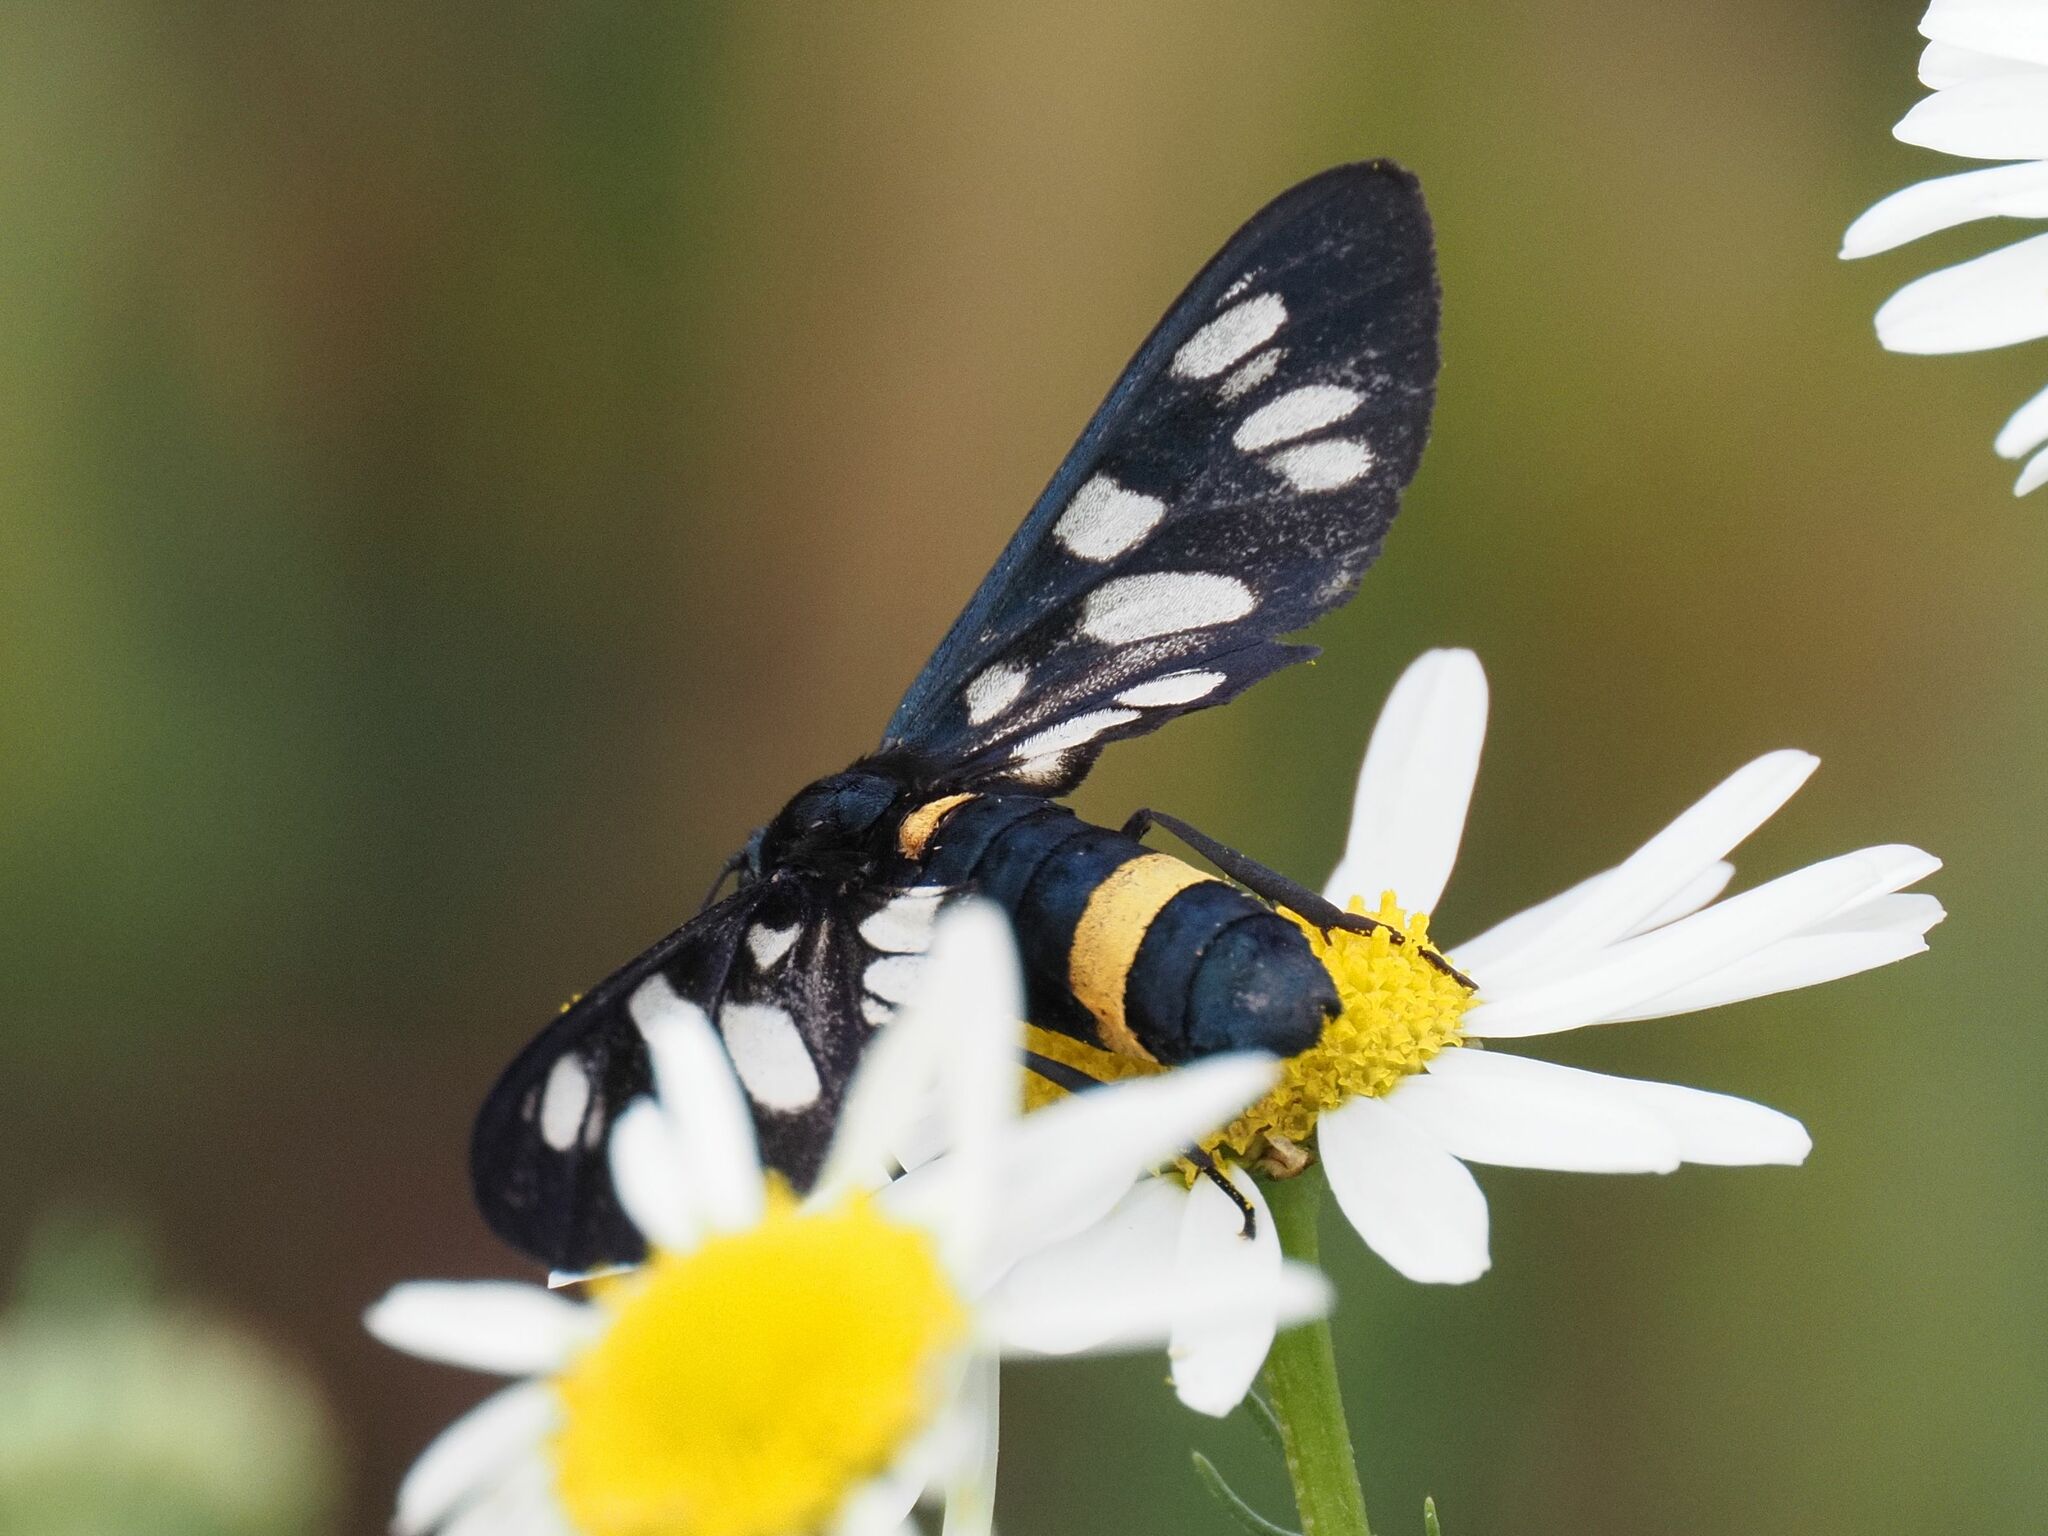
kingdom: Animalia
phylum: Arthropoda
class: Insecta
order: Lepidoptera
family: Erebidae
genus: Amata
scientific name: Amata phegea
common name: Nine-spotted
